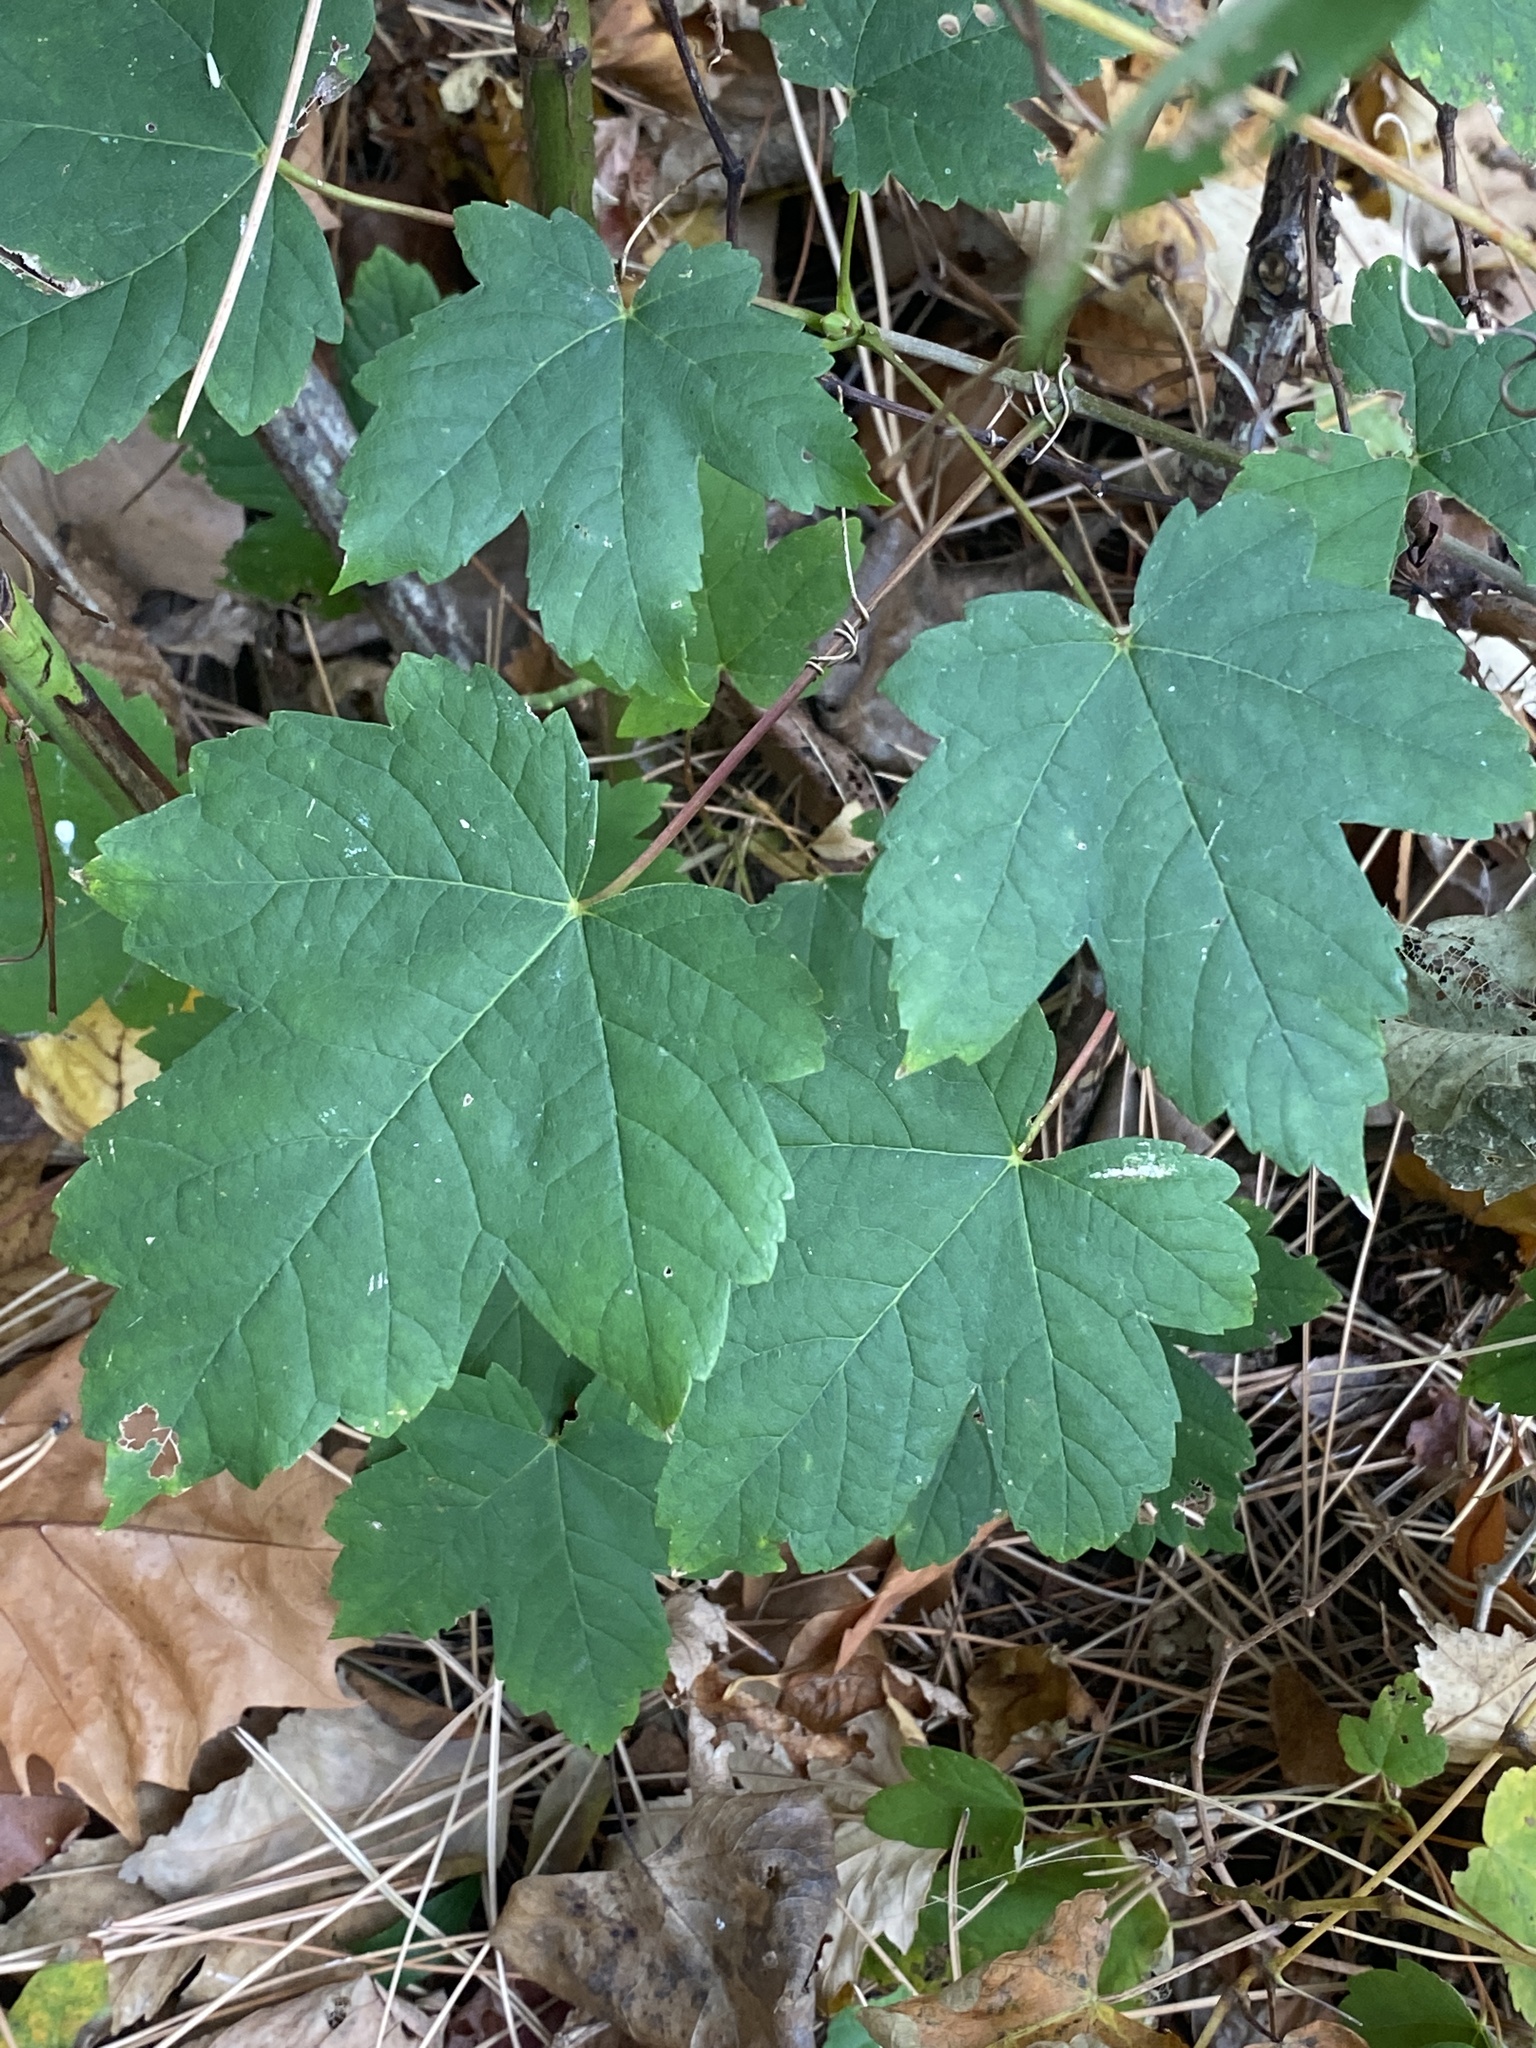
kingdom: Plantae
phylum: Tracheophyta
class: Magnoliopsida
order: Sapindales
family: Sapindaceae
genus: Acer
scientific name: Acer pseudoplatanus
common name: Sycamore
